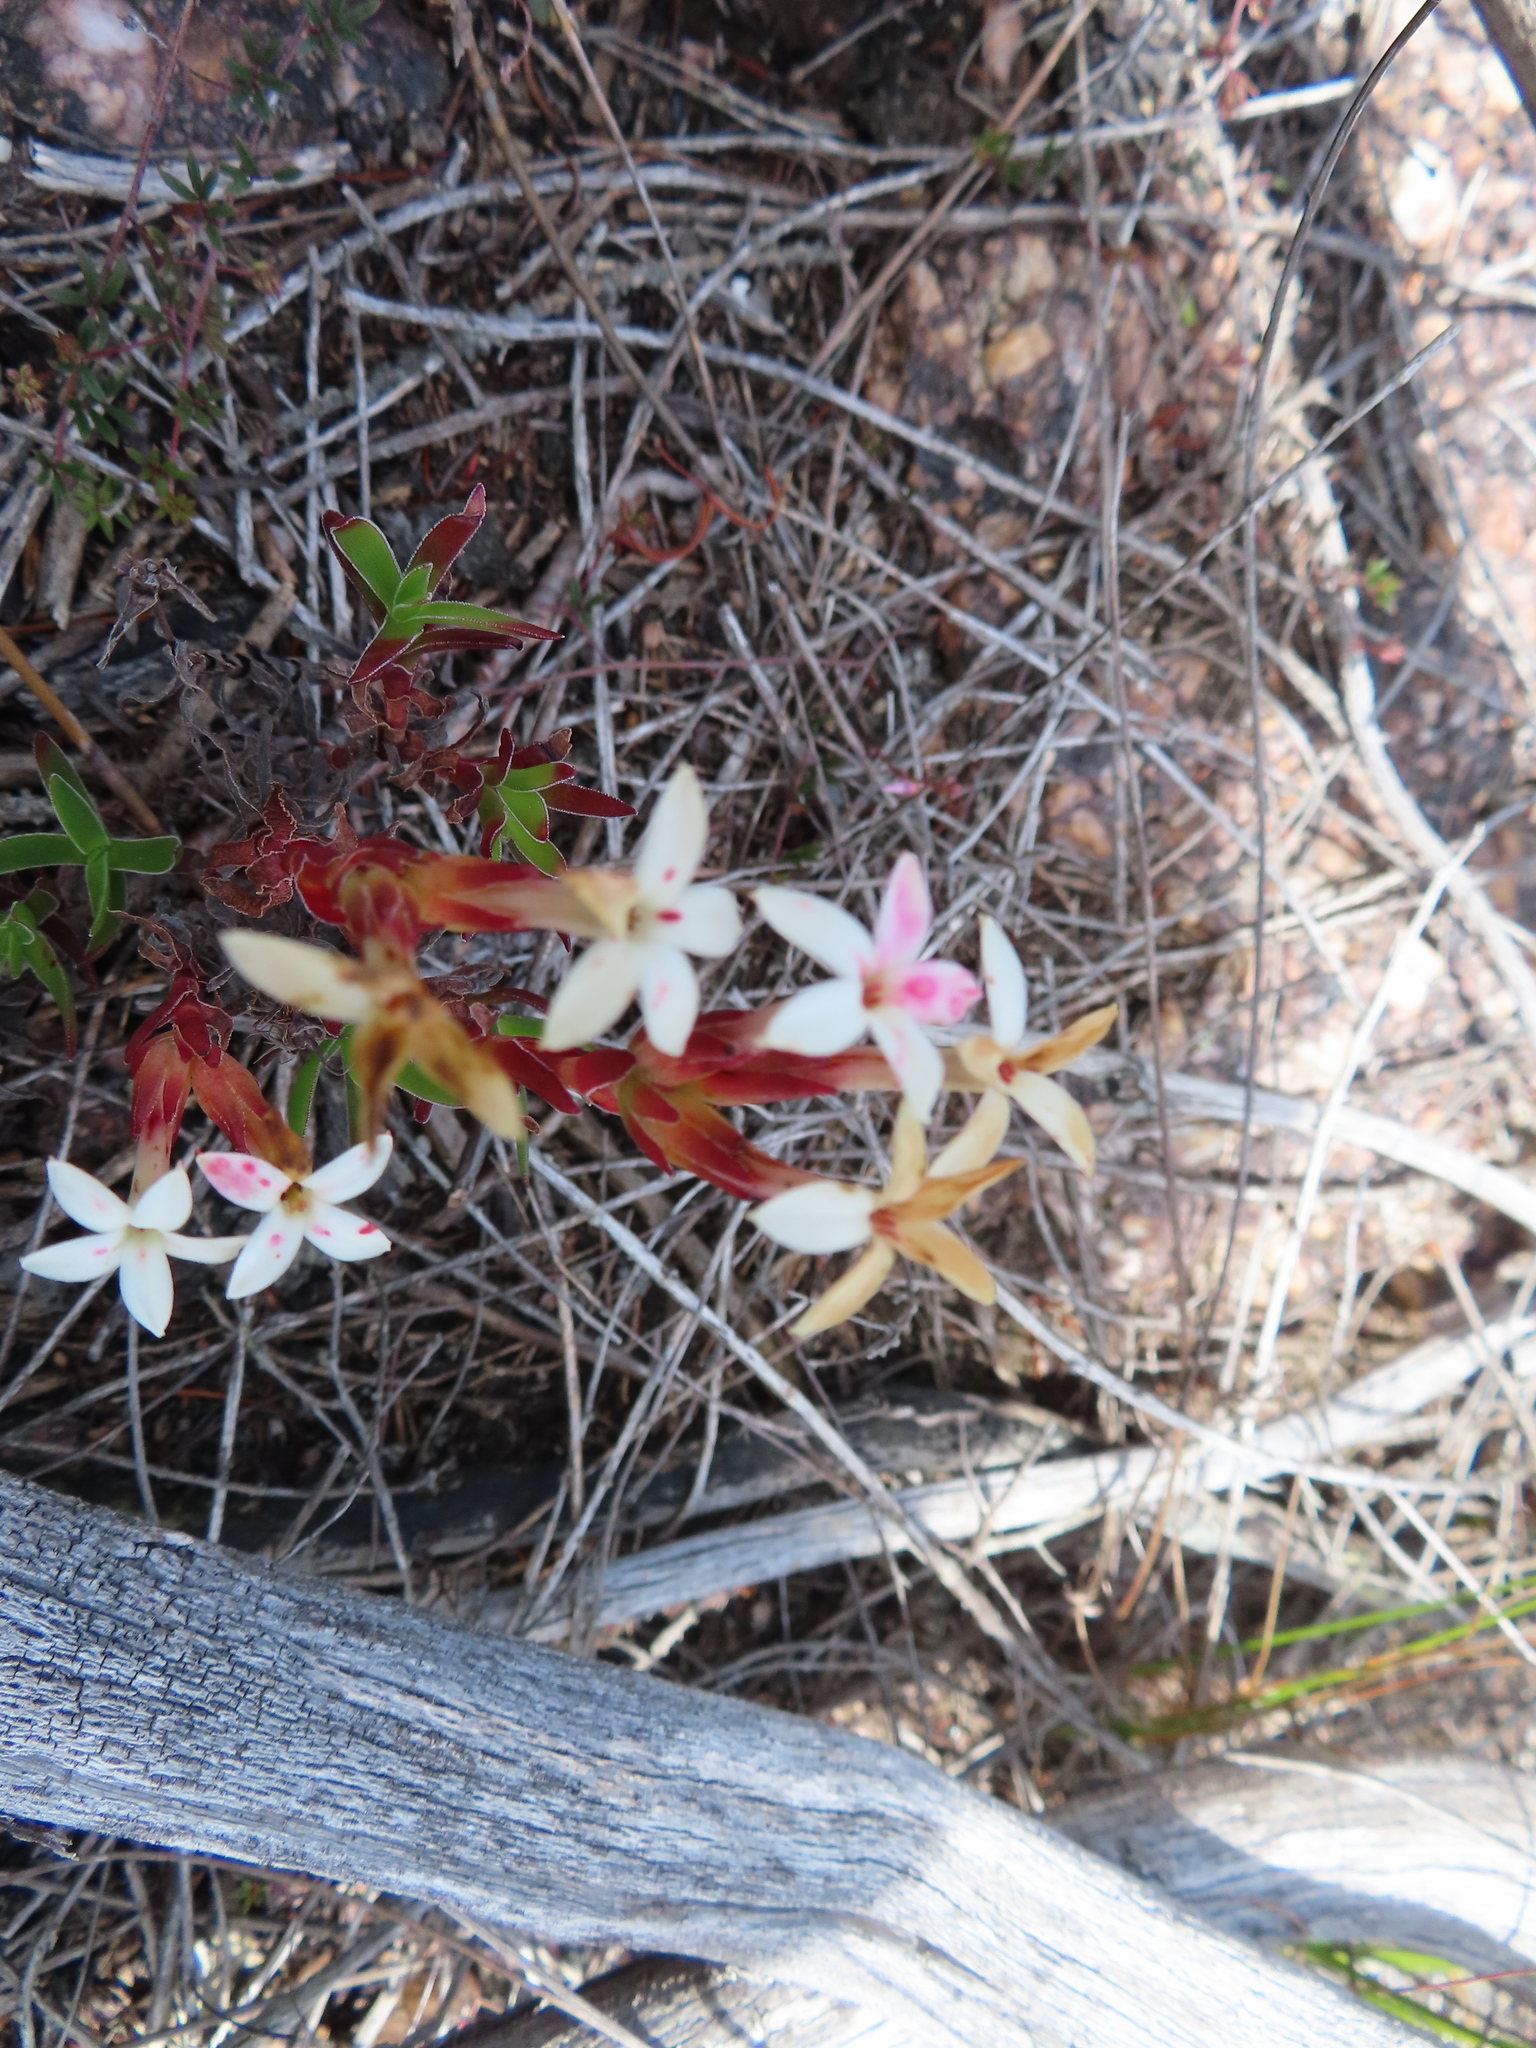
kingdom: Plantae
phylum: Tracheophyta
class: Magnoliopsida
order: Saxifragales
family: Crassulaceae
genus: Crassula
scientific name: Crassula fascicularis
